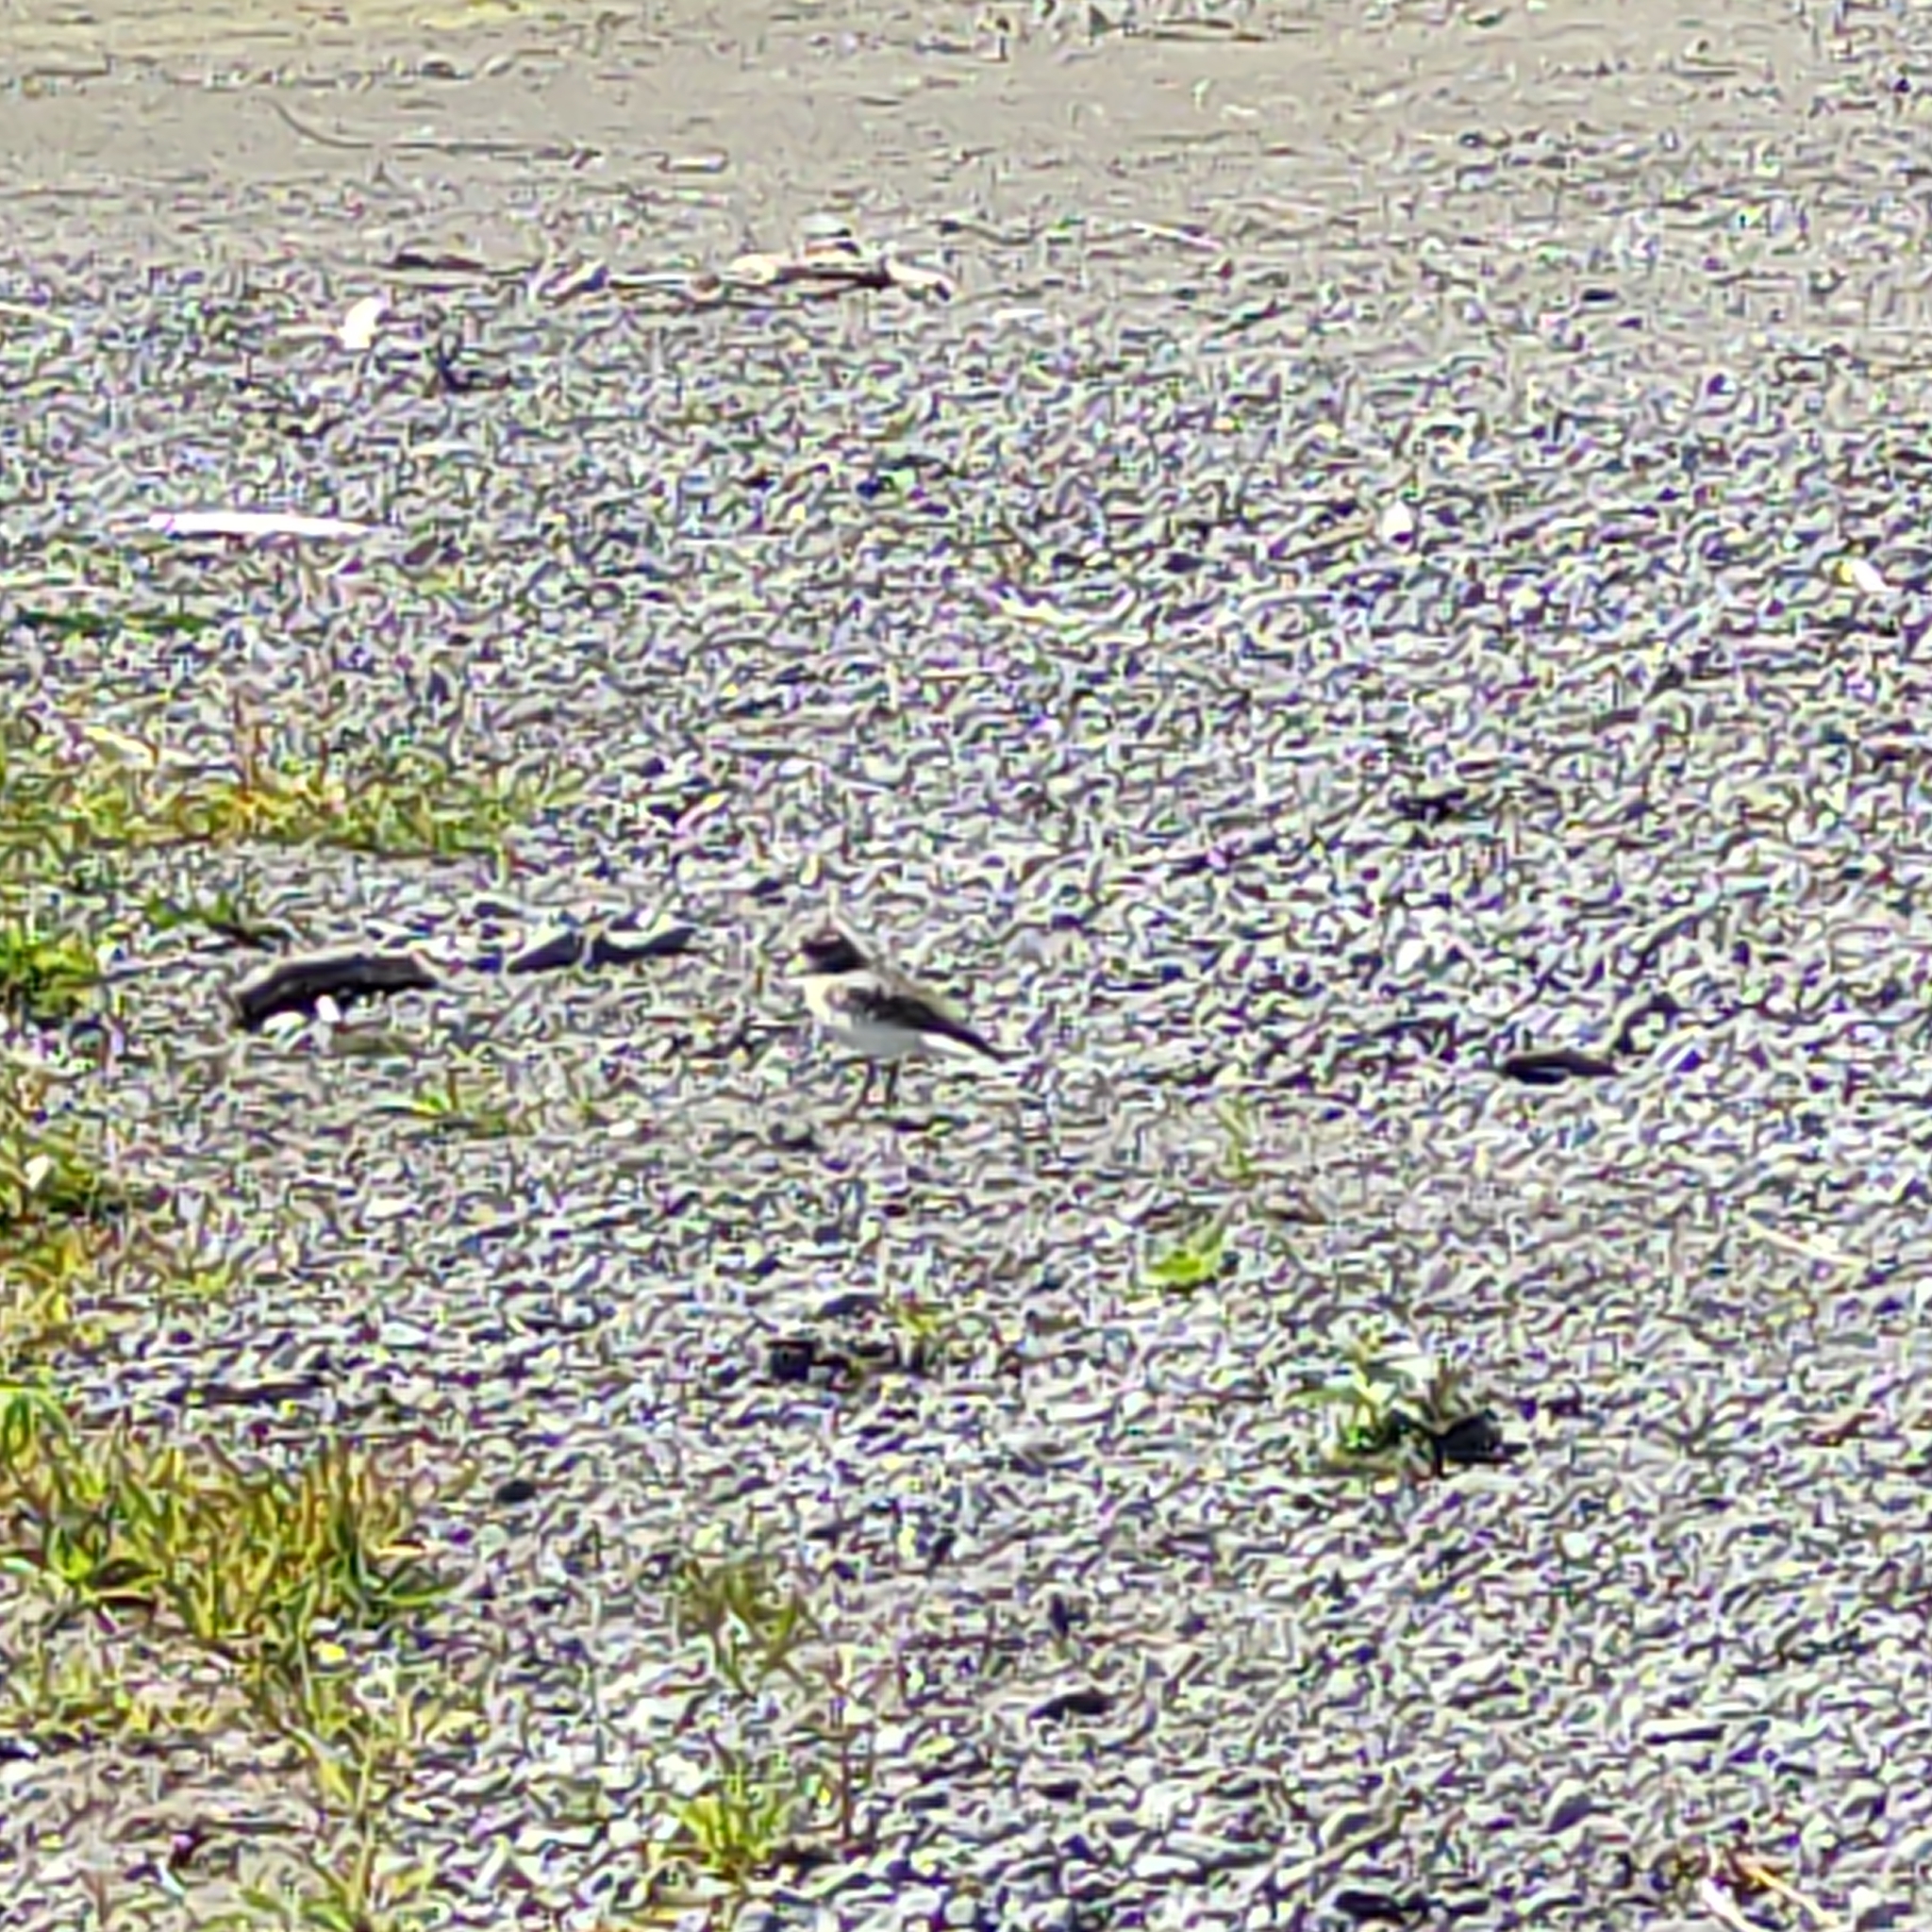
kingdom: Animalia
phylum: Chordata
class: Aves
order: Charadriiformes
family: Charadriidae
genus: Anarhynchus
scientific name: Anarhynchus
